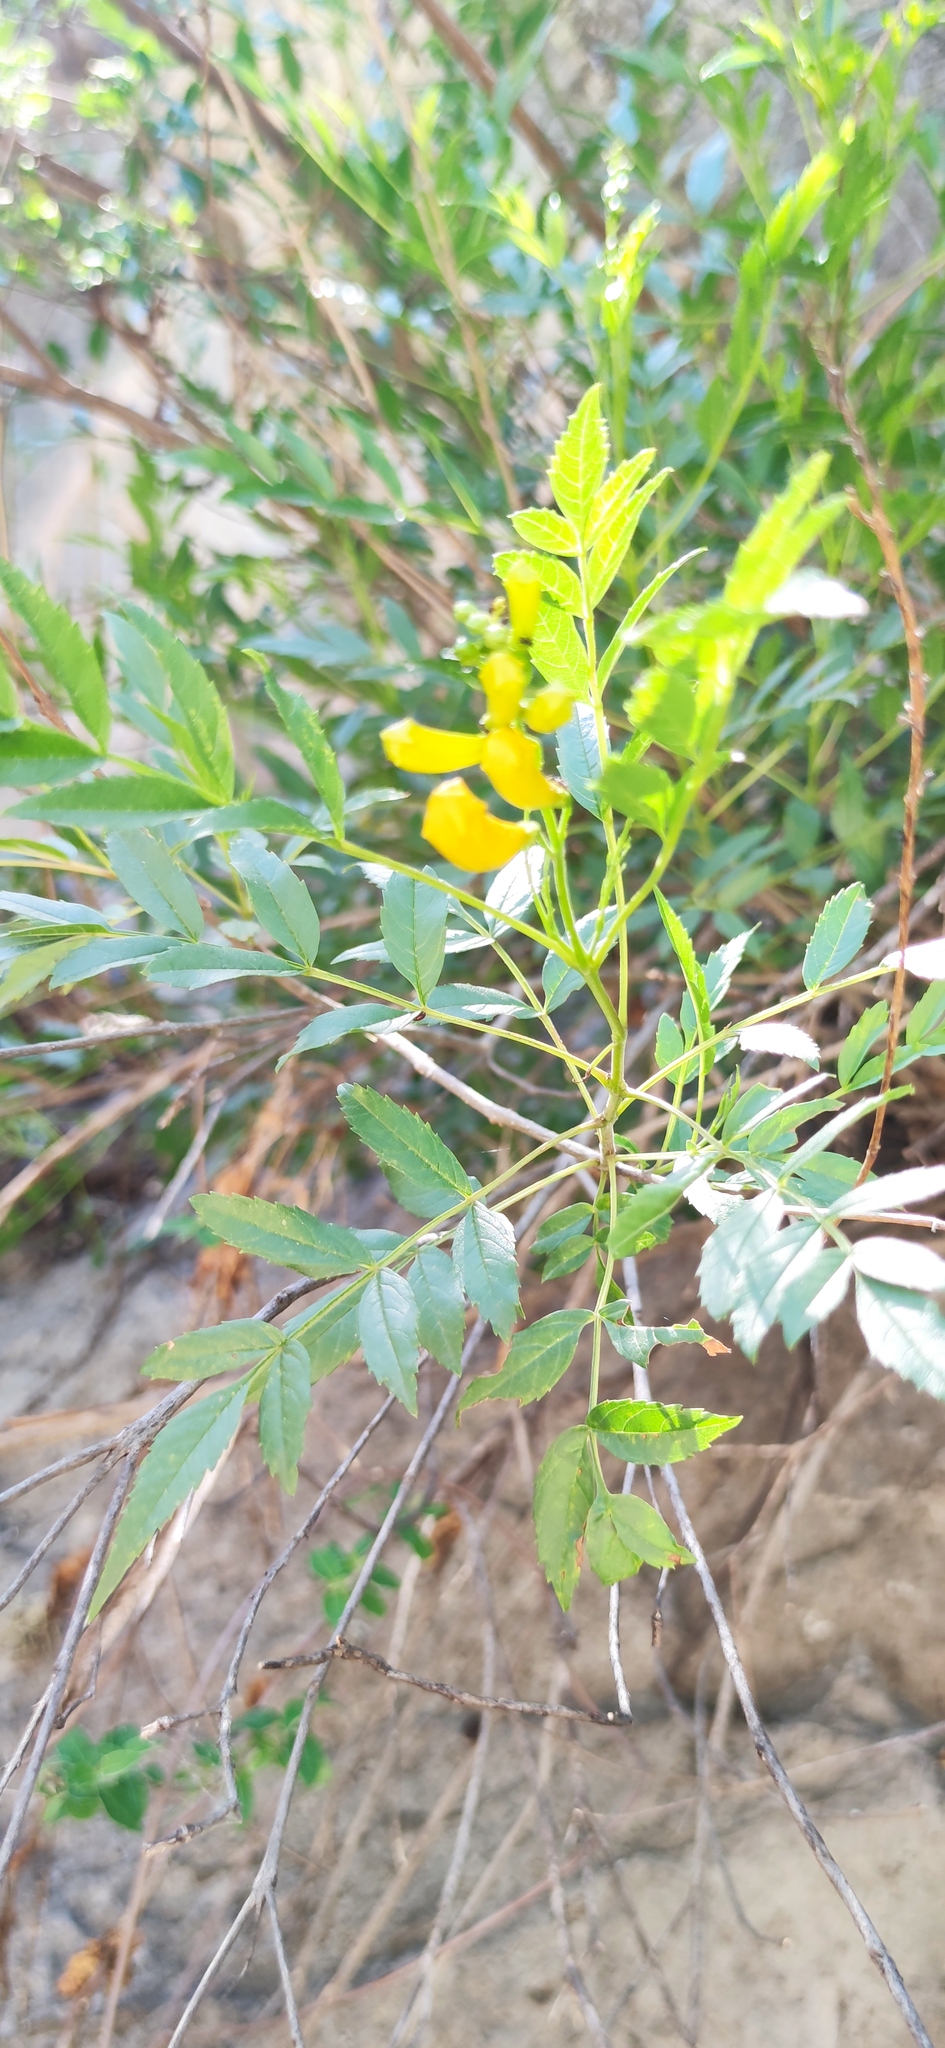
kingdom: Plantae
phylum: Tracheophyta
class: Magnoliopsida
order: Lamiales
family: Bignoniaceae
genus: Tecoma
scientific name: Tecoma stans
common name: Yellow trumpetbush
